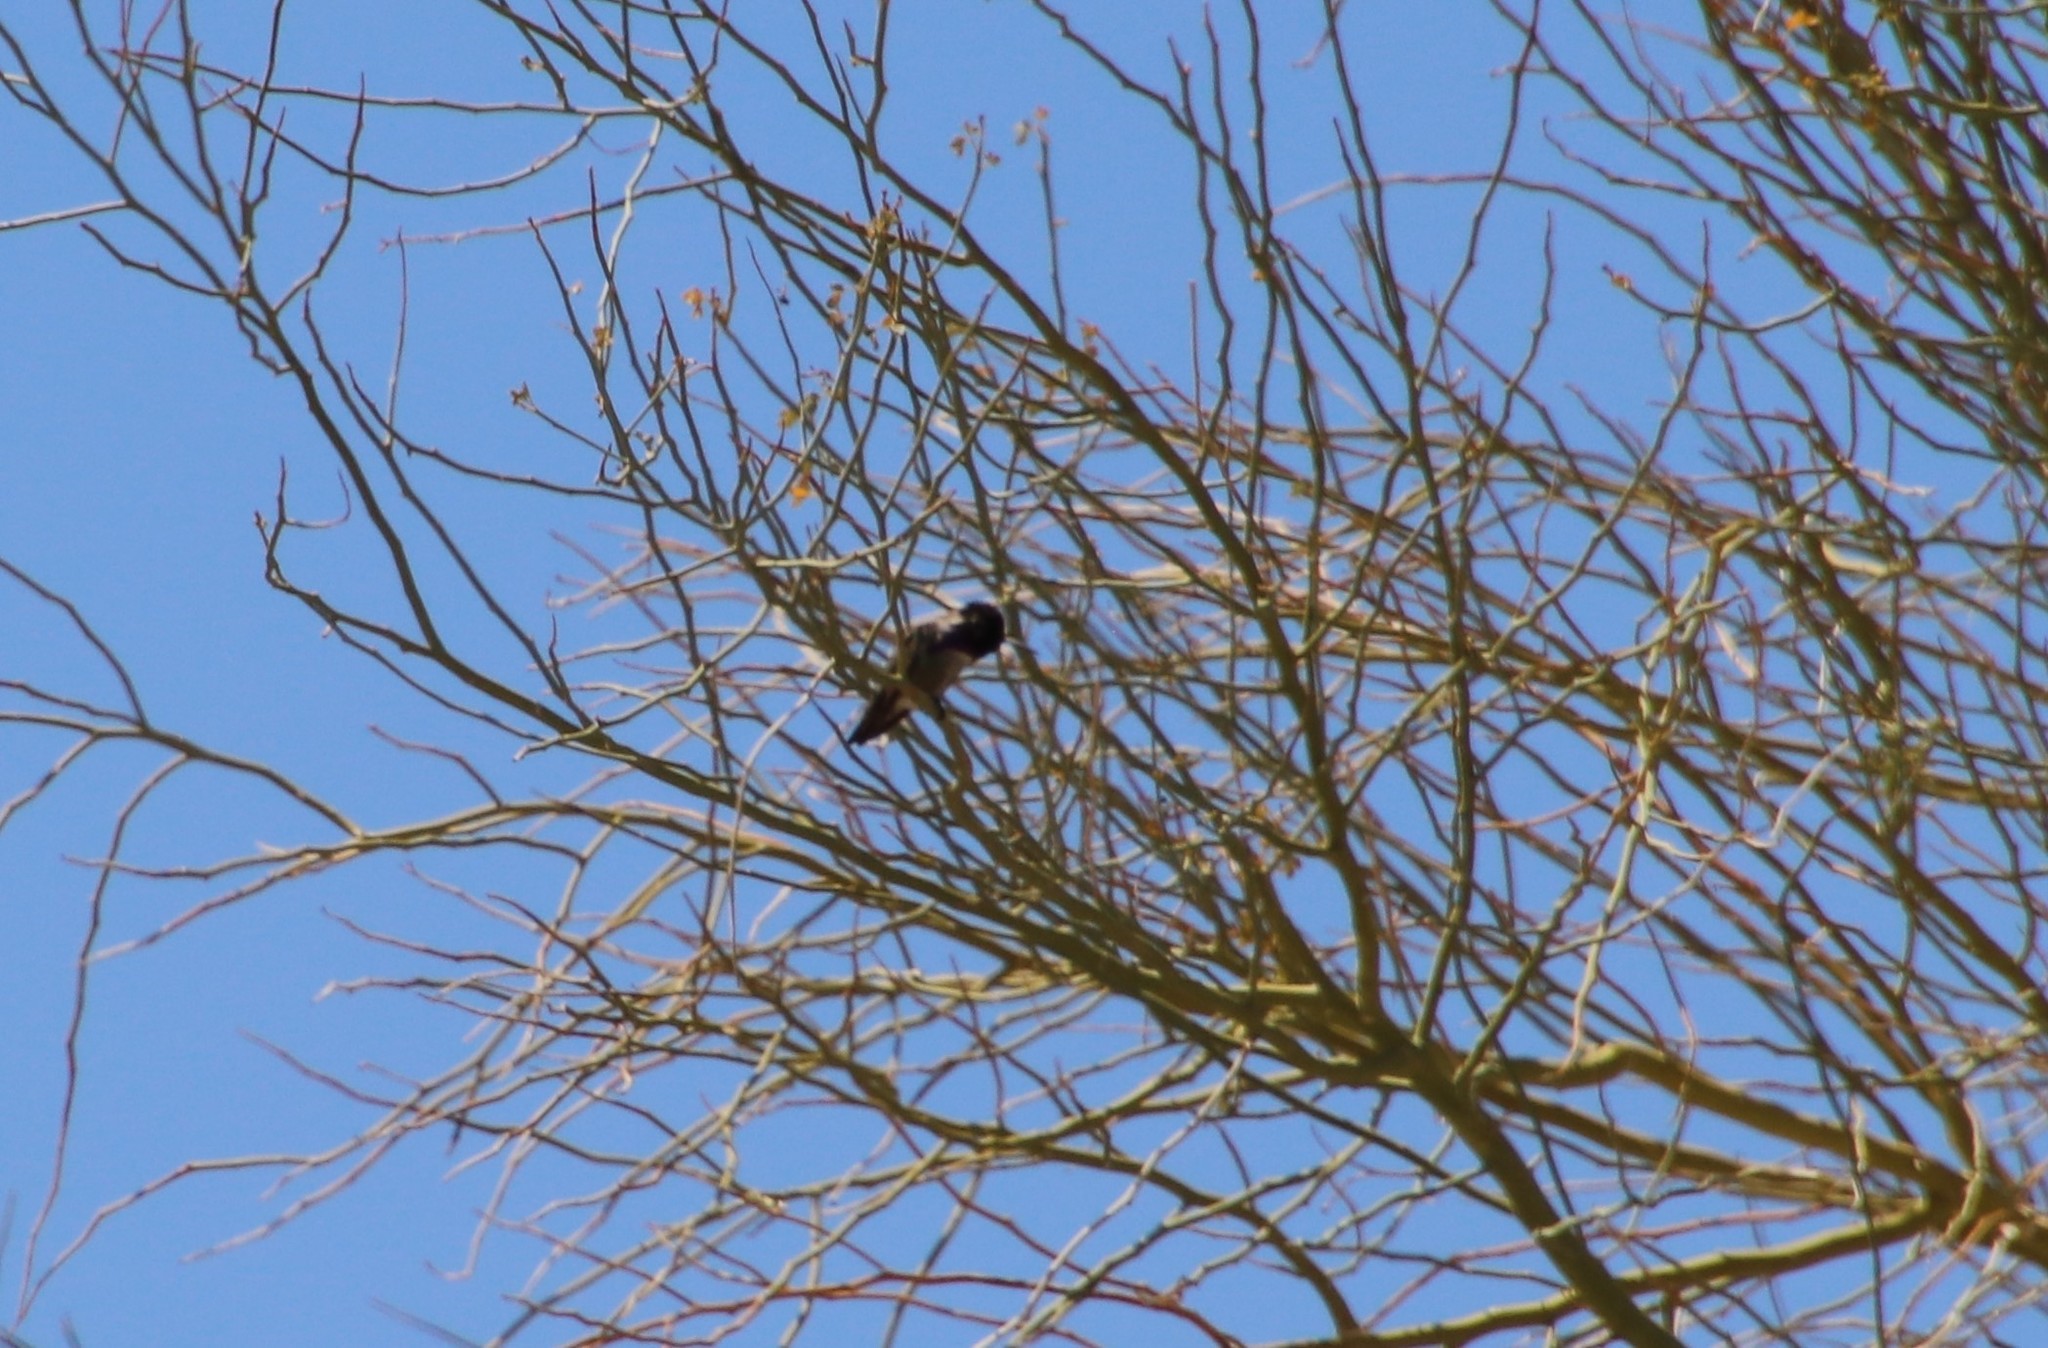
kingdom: Animalia
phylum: Chordata
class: Aves
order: Apodiformes
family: Trochilidae
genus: Calypte
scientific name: Calypte costae
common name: Costa's hummingbird
